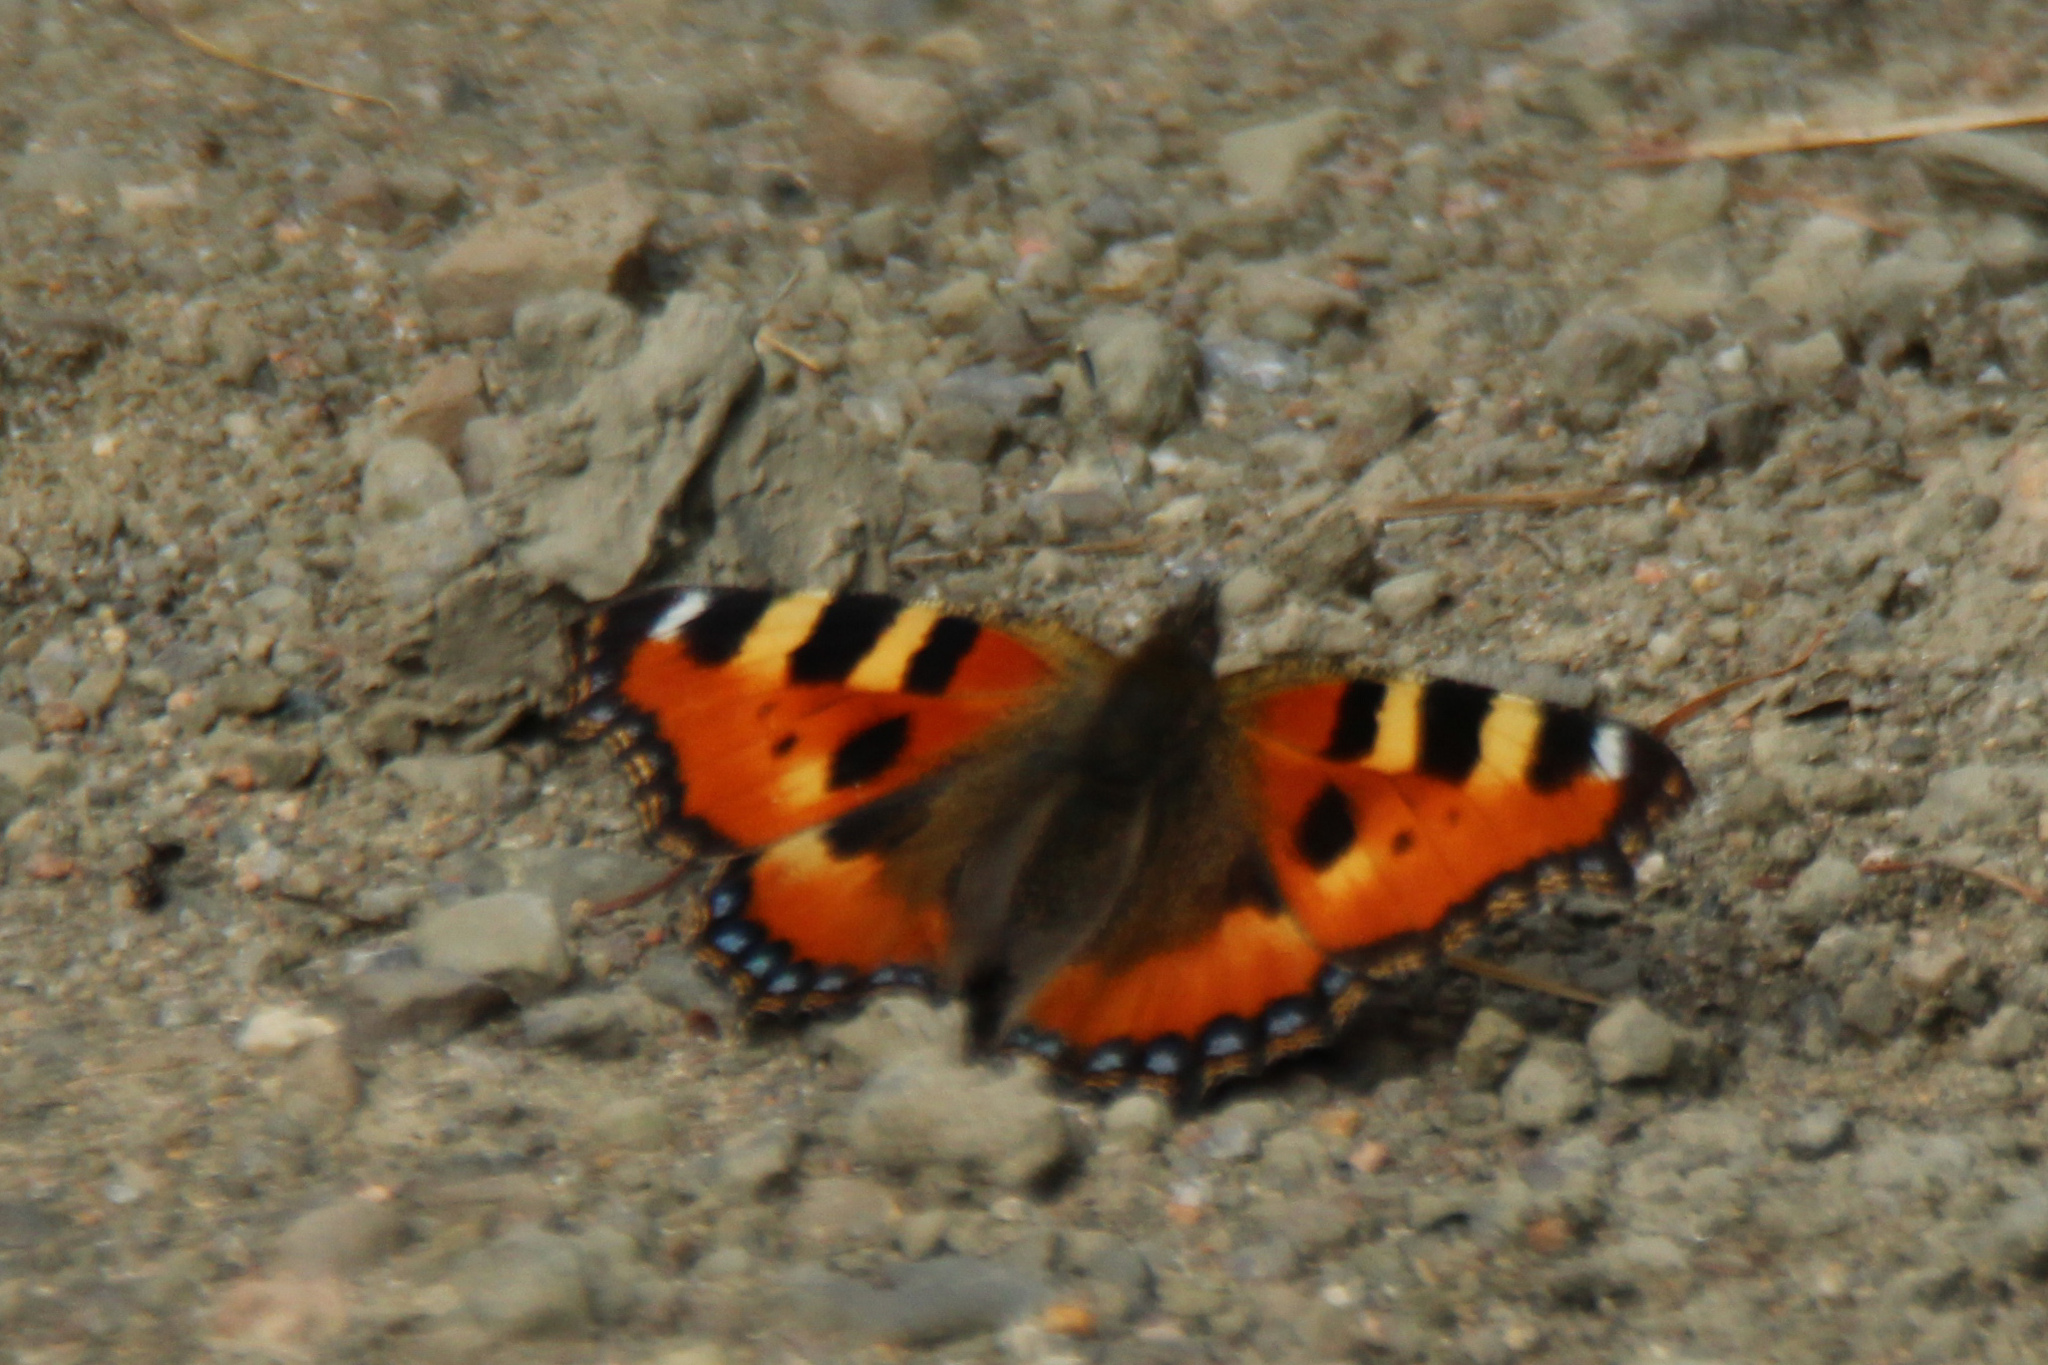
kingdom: Animalia
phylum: Arthropoda
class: Insecta
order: Lepidoptera
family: Nymphalidae
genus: Aglais
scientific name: Aglais urticae
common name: Small tortoiseshell
